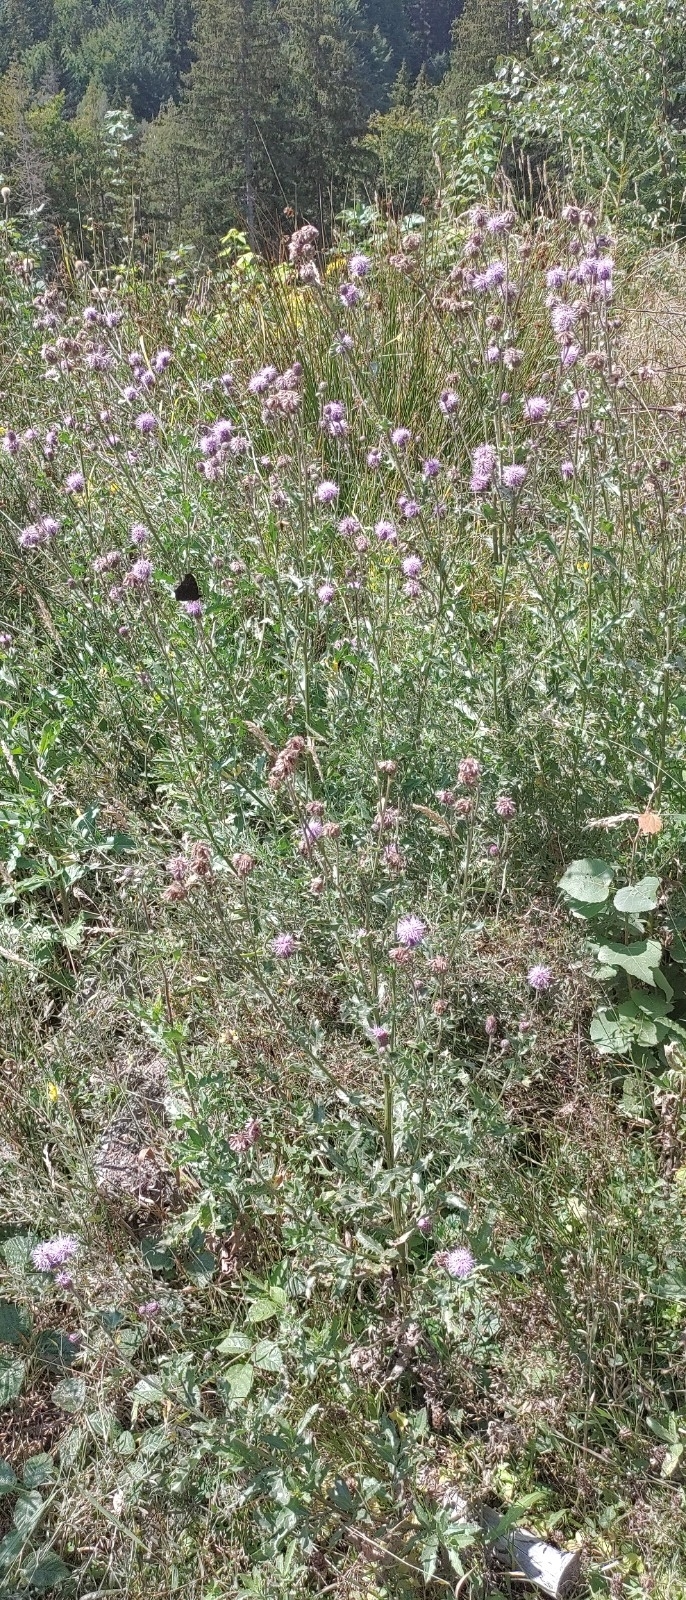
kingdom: Plantae
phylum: Tracheophyta
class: Magnoliopsida
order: Asterales
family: Asteraceae
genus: Cirsium
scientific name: Cirsium arvense
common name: Creeping thistle
